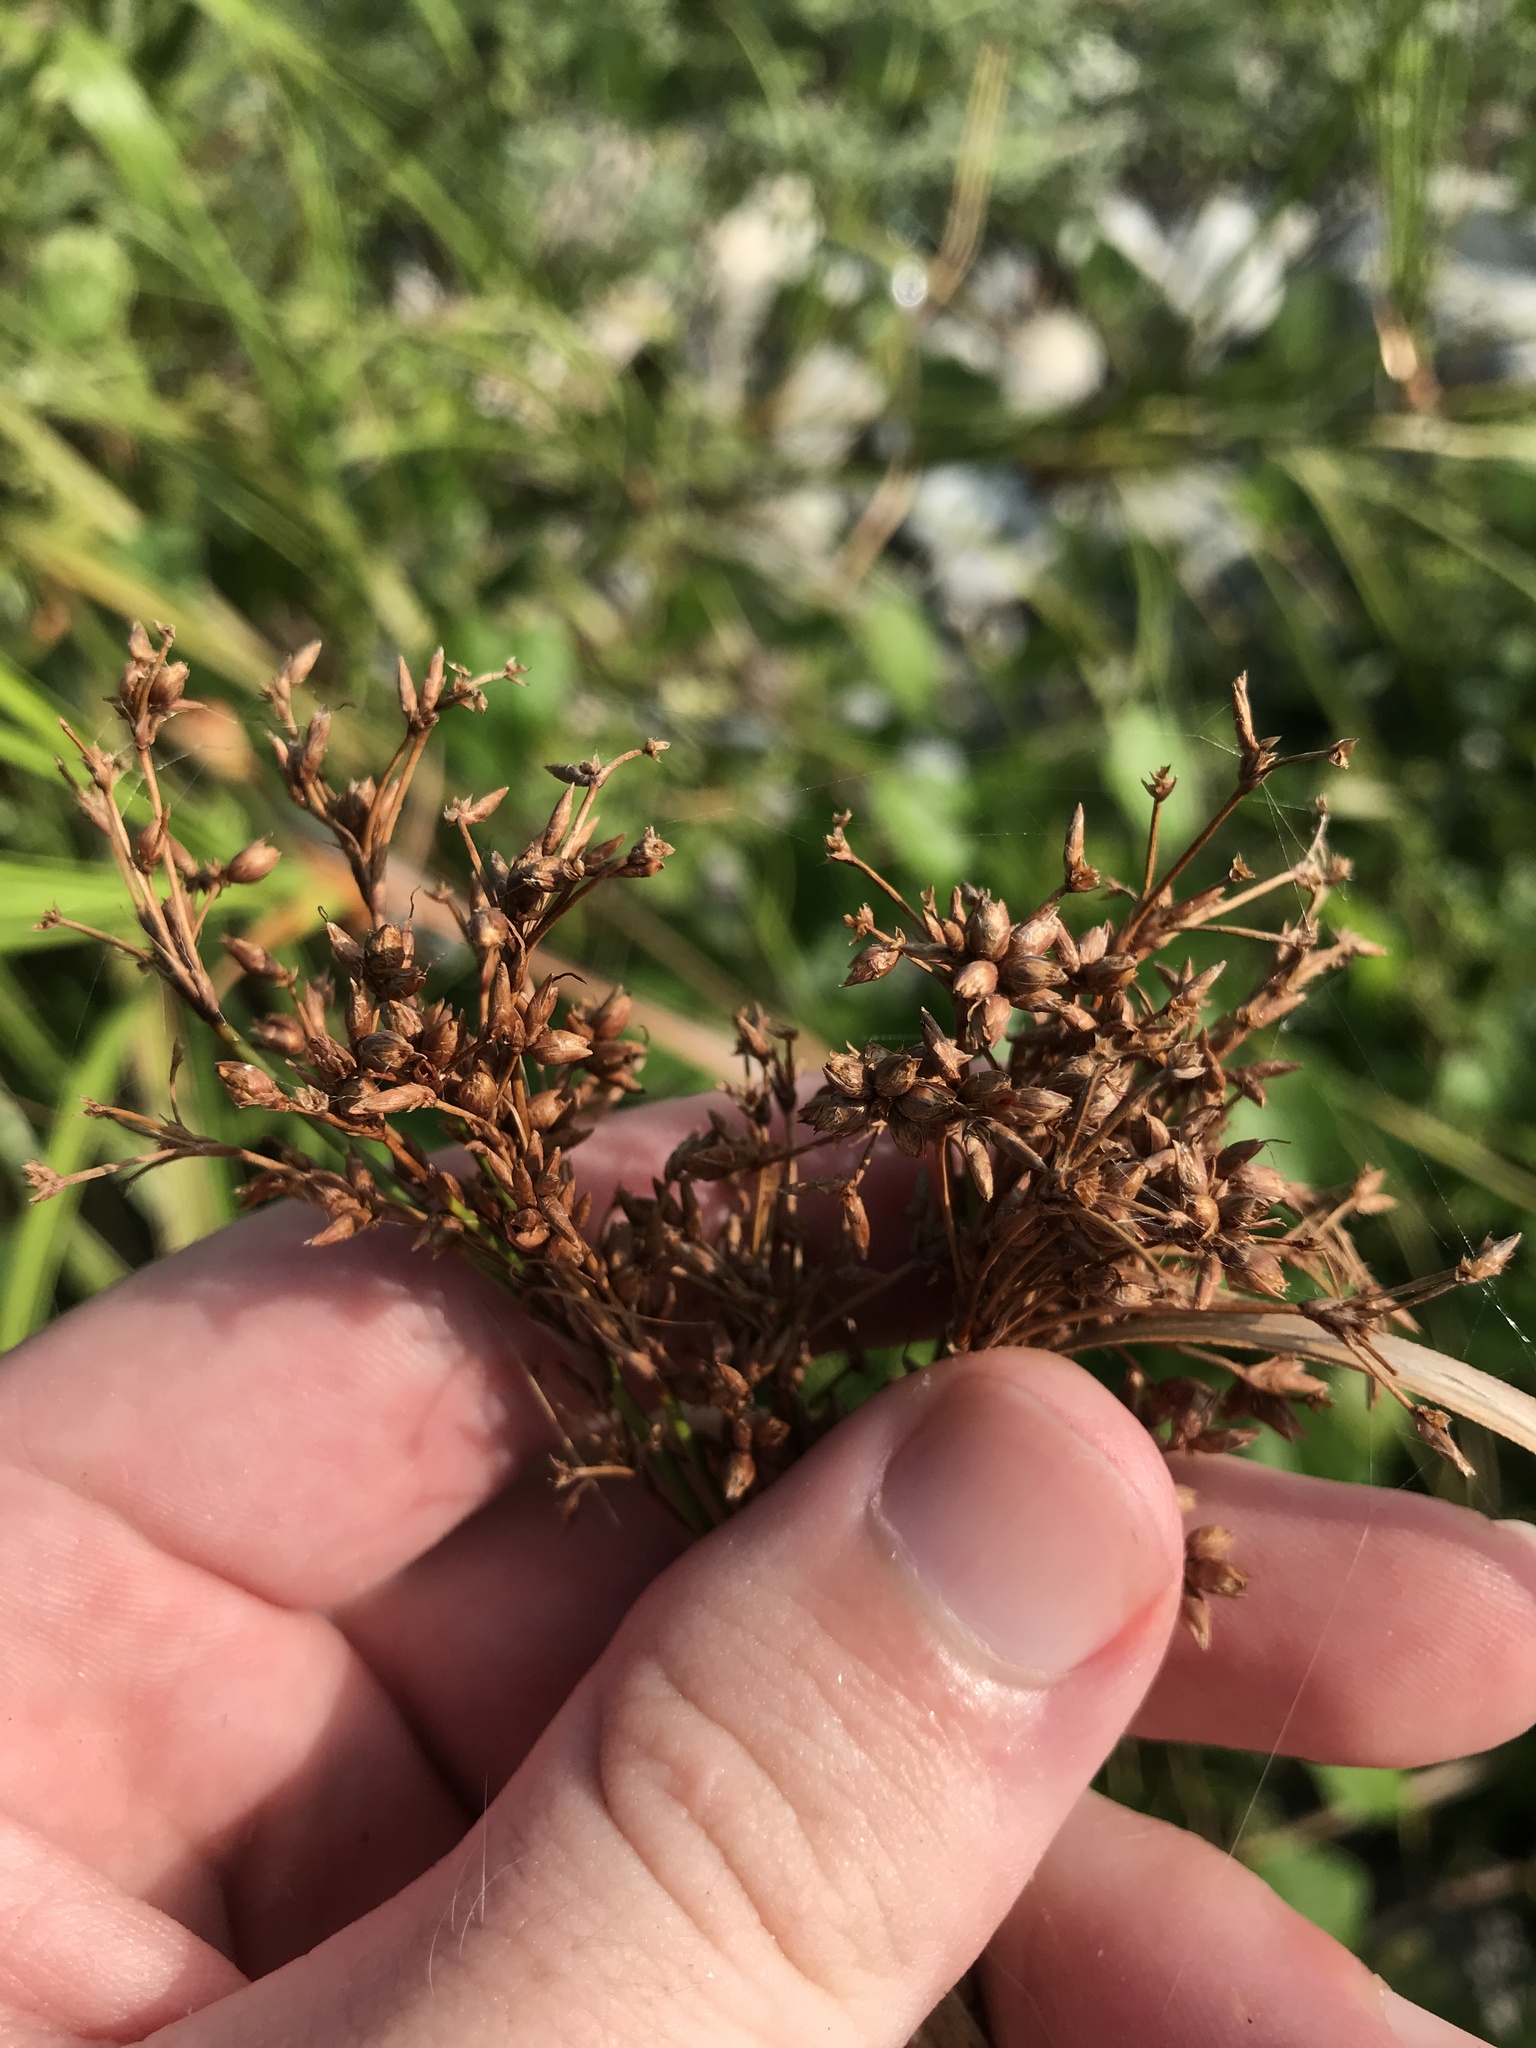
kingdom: Plantae
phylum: Tracheophyta
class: Liliopsida
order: Poales
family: Cyperaceae
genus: Cladium
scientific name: Cladium mariscus
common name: Great fen-sedge
